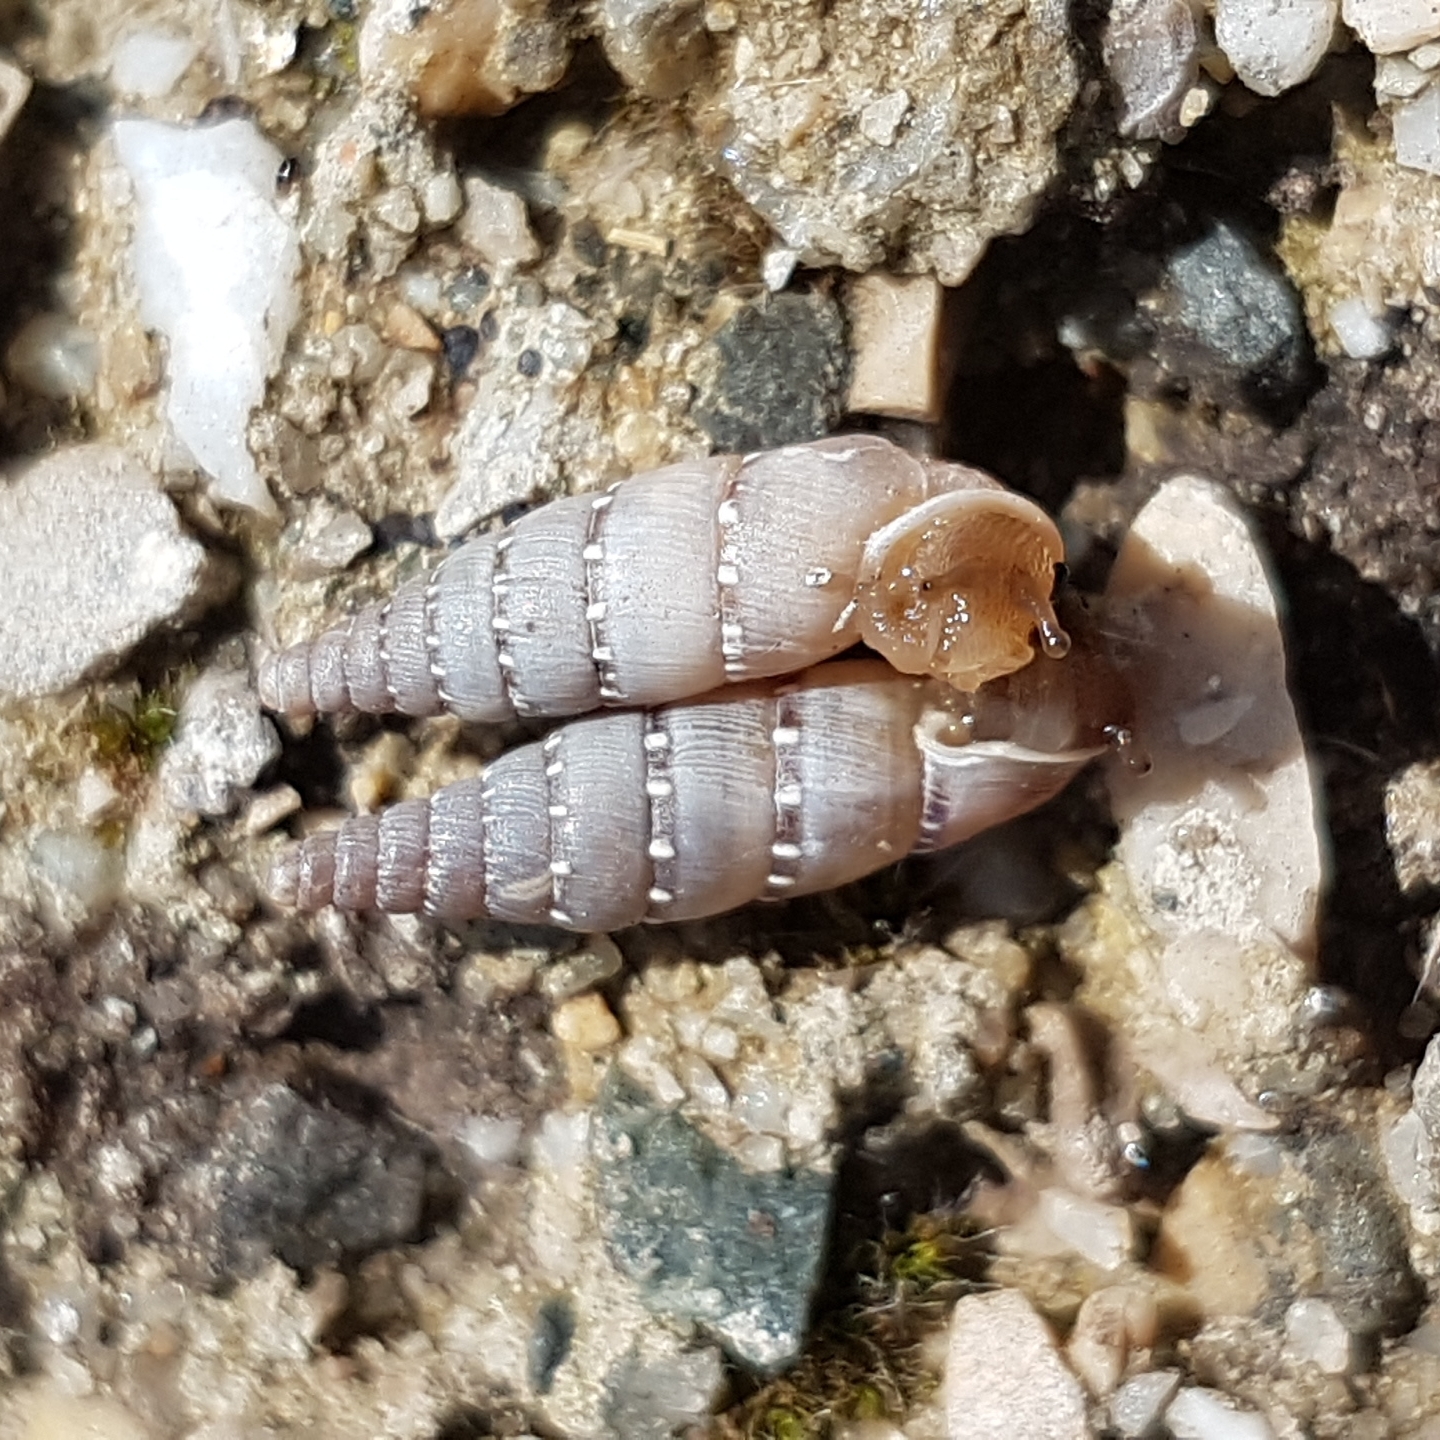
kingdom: Animalia
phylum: Mollusca
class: Gastropoda
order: Stylommatophora
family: Clausiliidae
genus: Papillifera
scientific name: Papillifera papillaris
